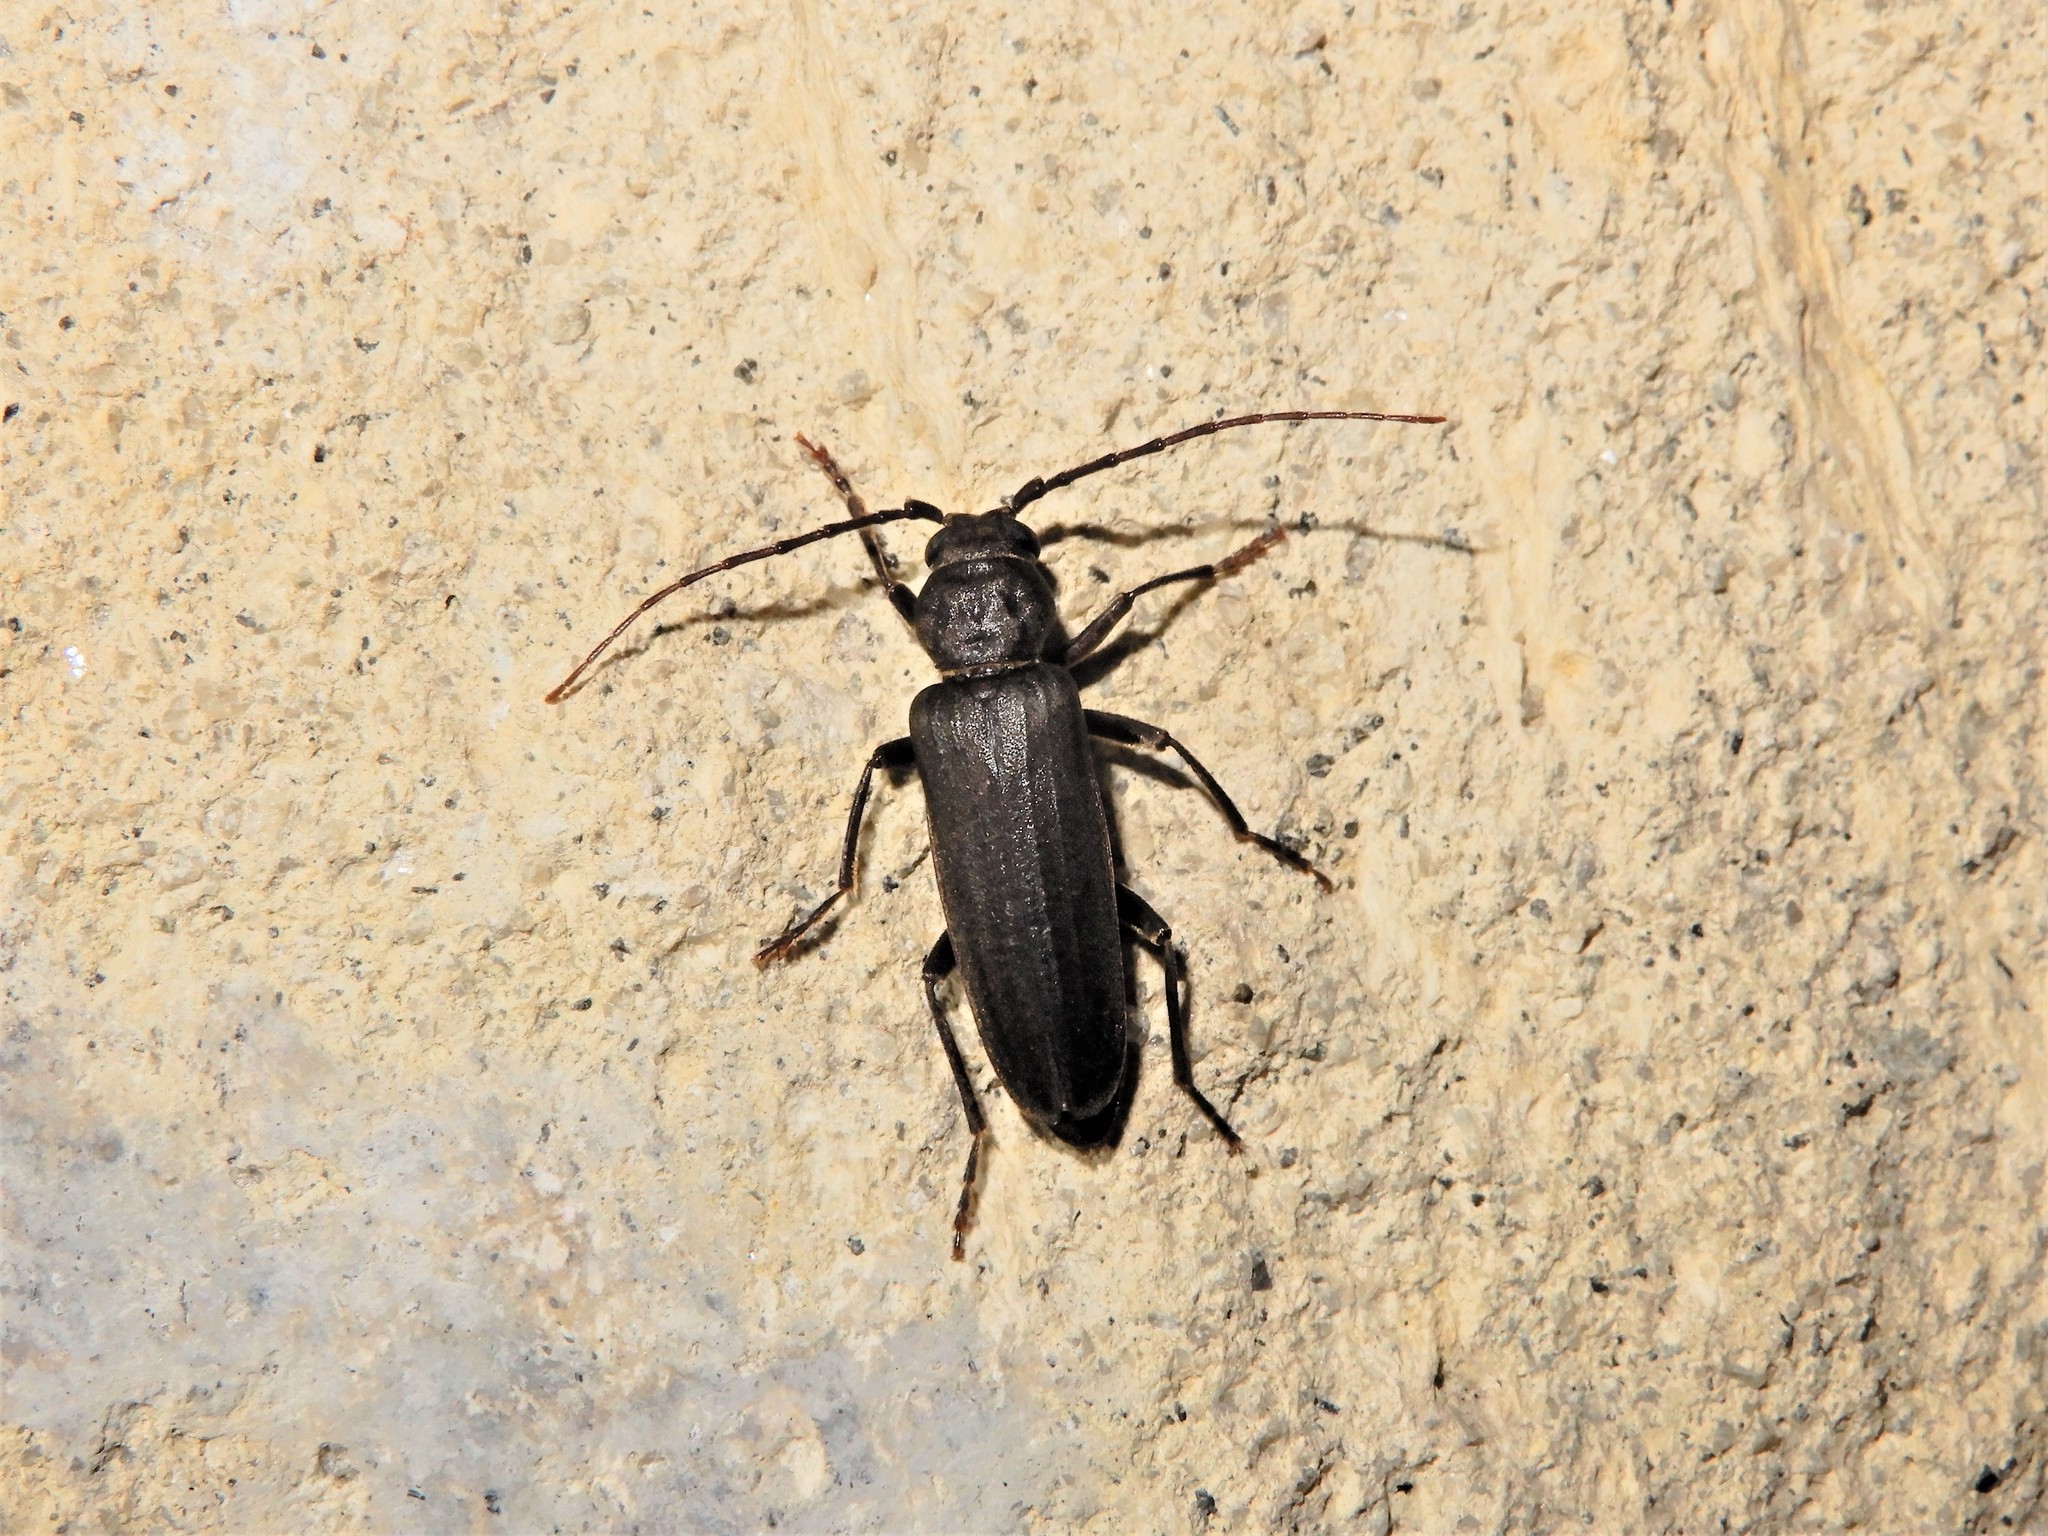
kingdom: Animalia
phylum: Arthropoda
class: Insecta
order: Coleoptera
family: Cerambycidae
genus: Arhopalus
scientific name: Arhopalus ferus
